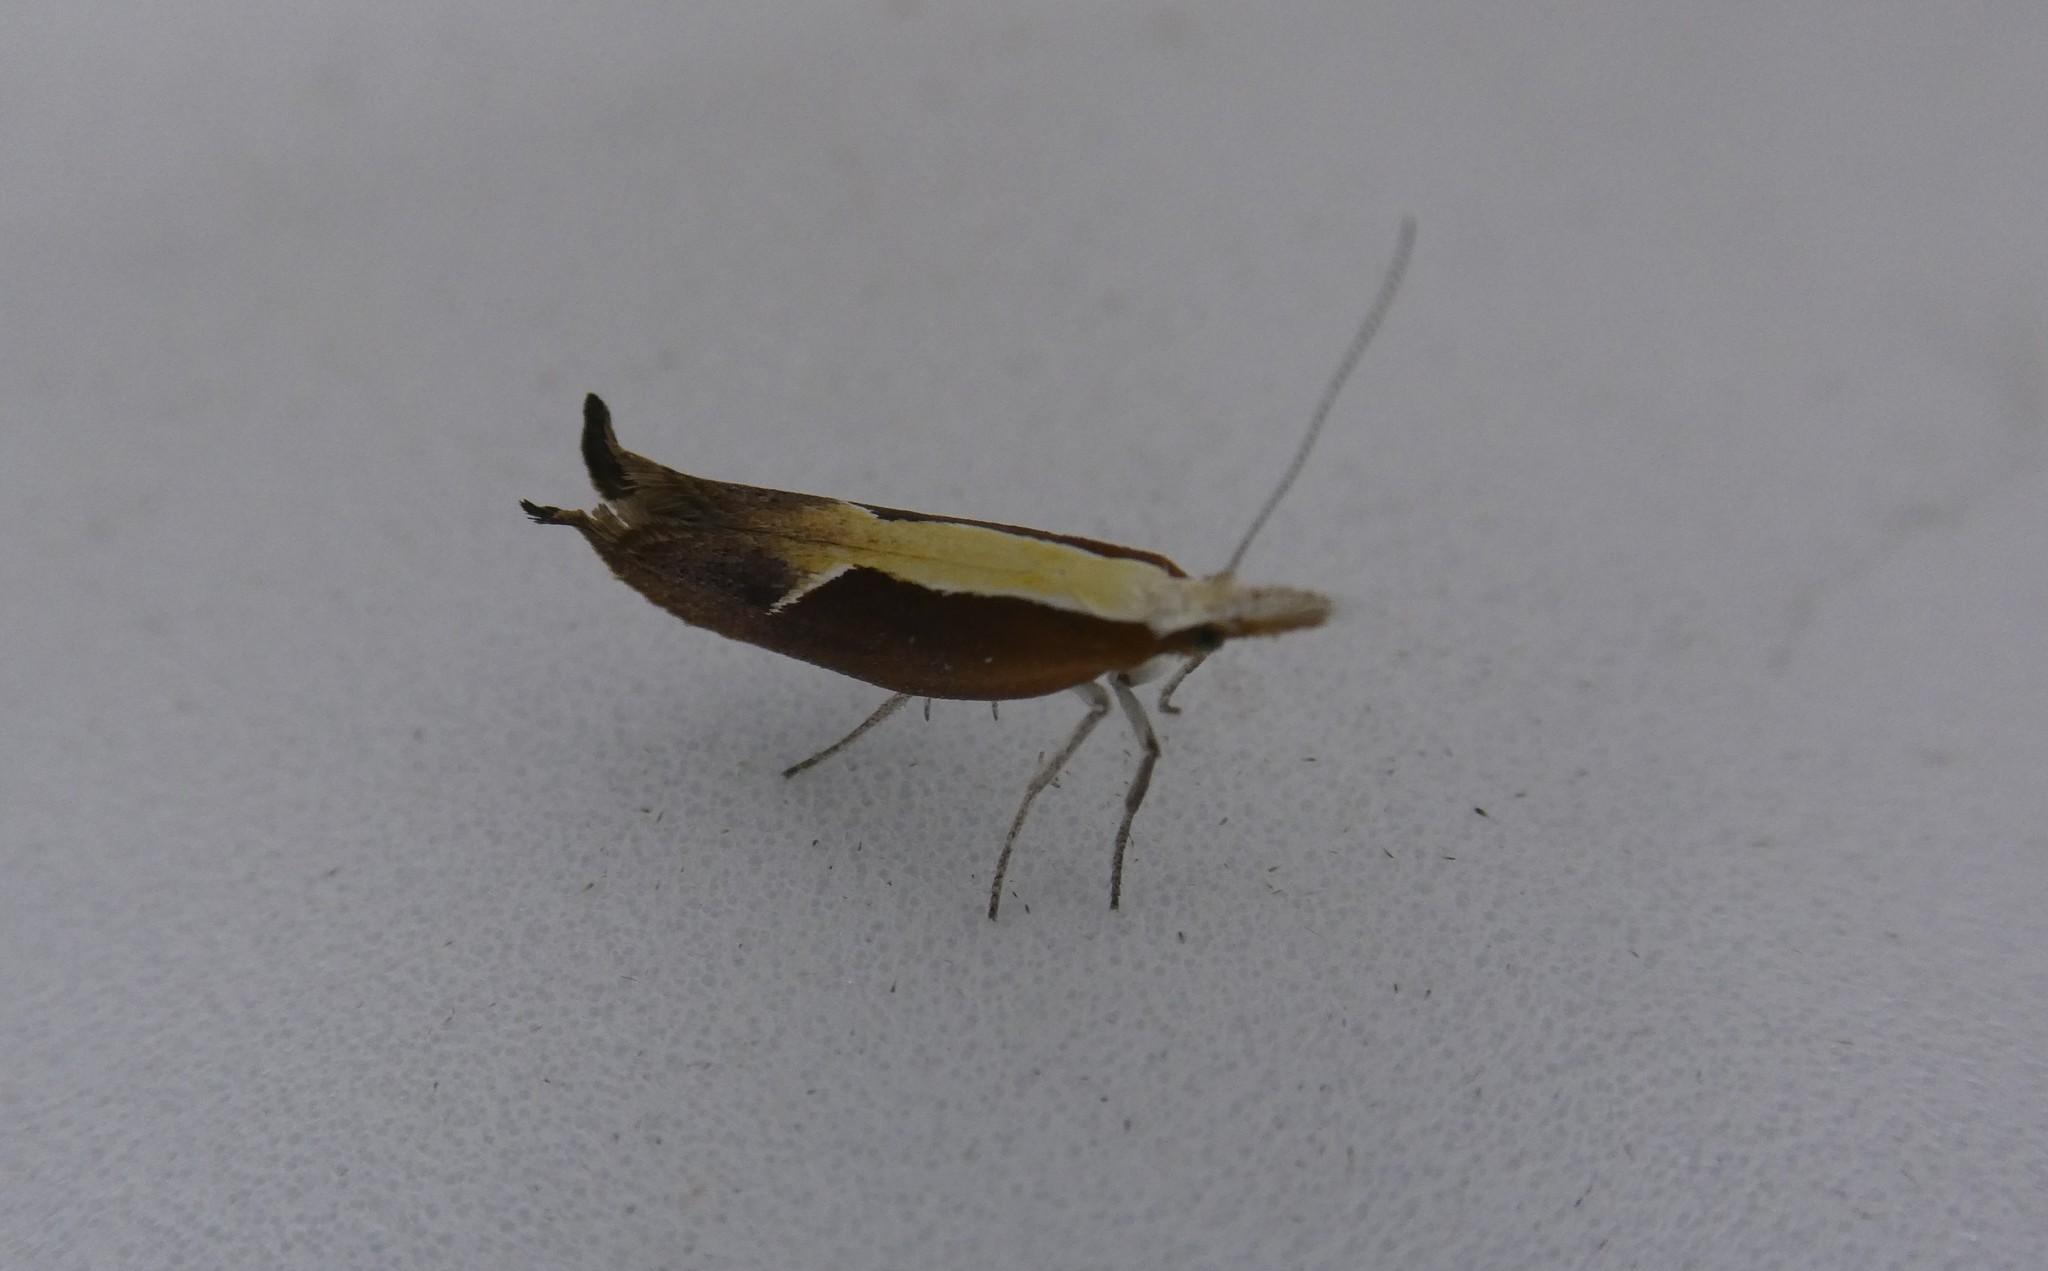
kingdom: Animalia
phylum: Arthropoda
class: Insecta
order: Lepidoptera
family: Ypsolophidae
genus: Ypsolopha
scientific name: Ypsolopha dentella
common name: Honeysuckle moth
